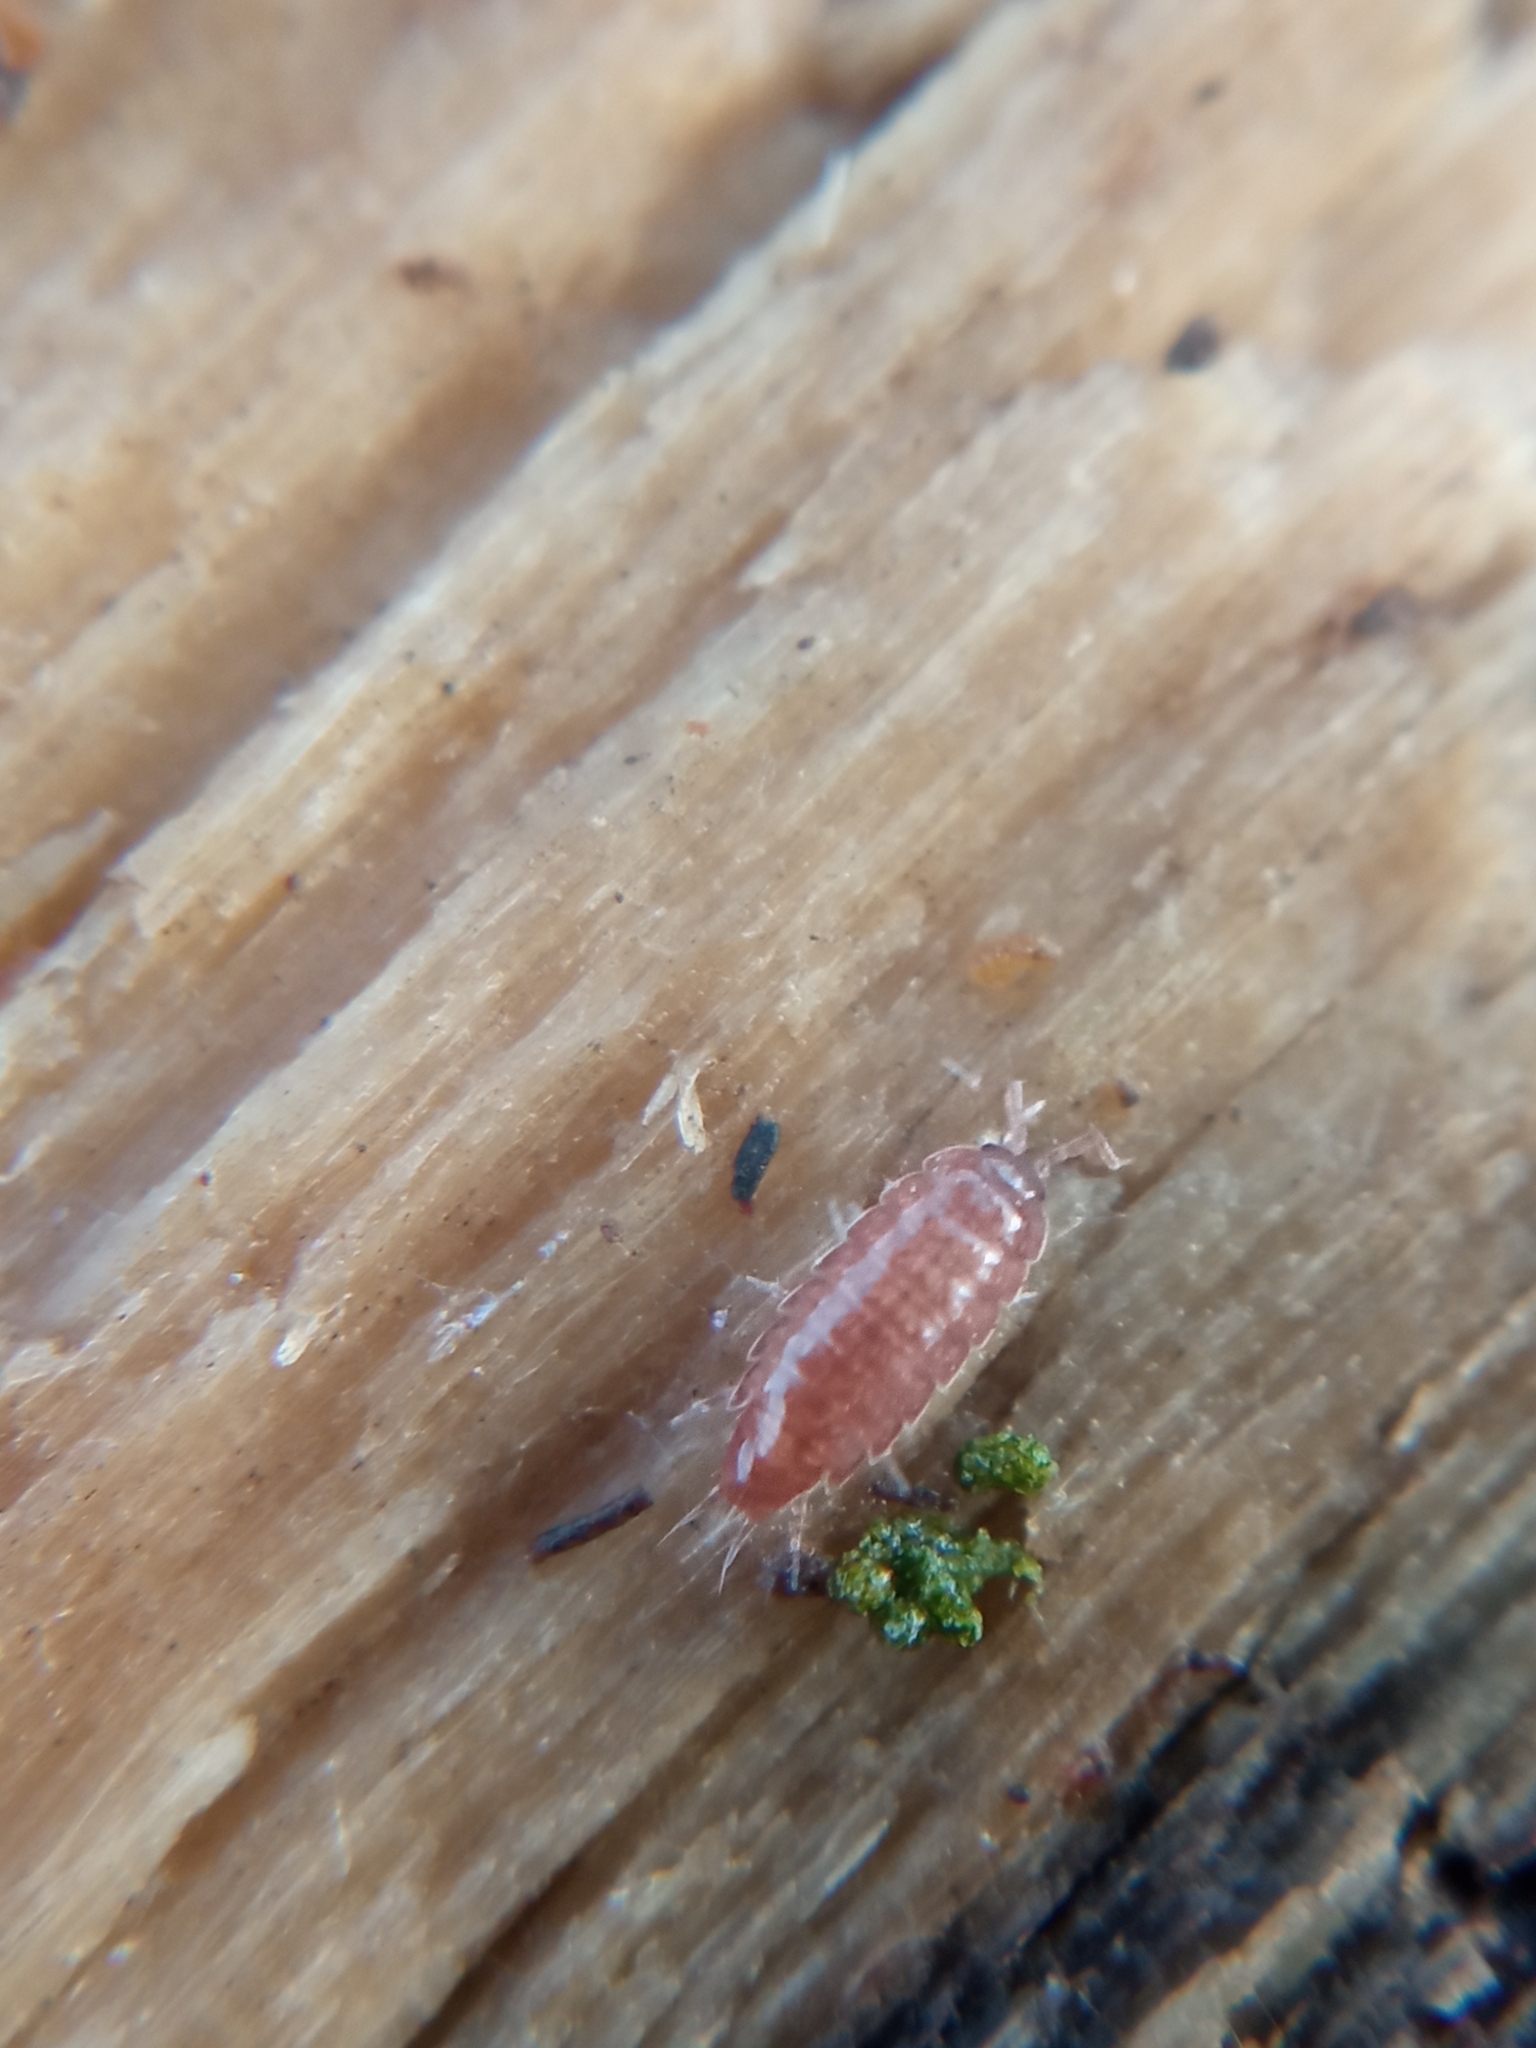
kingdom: Animalia
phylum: Arthropoda
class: Malacostraca
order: Isopoda
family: Trichoniscidae
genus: Trichoniscus
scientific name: Trichoniscus
